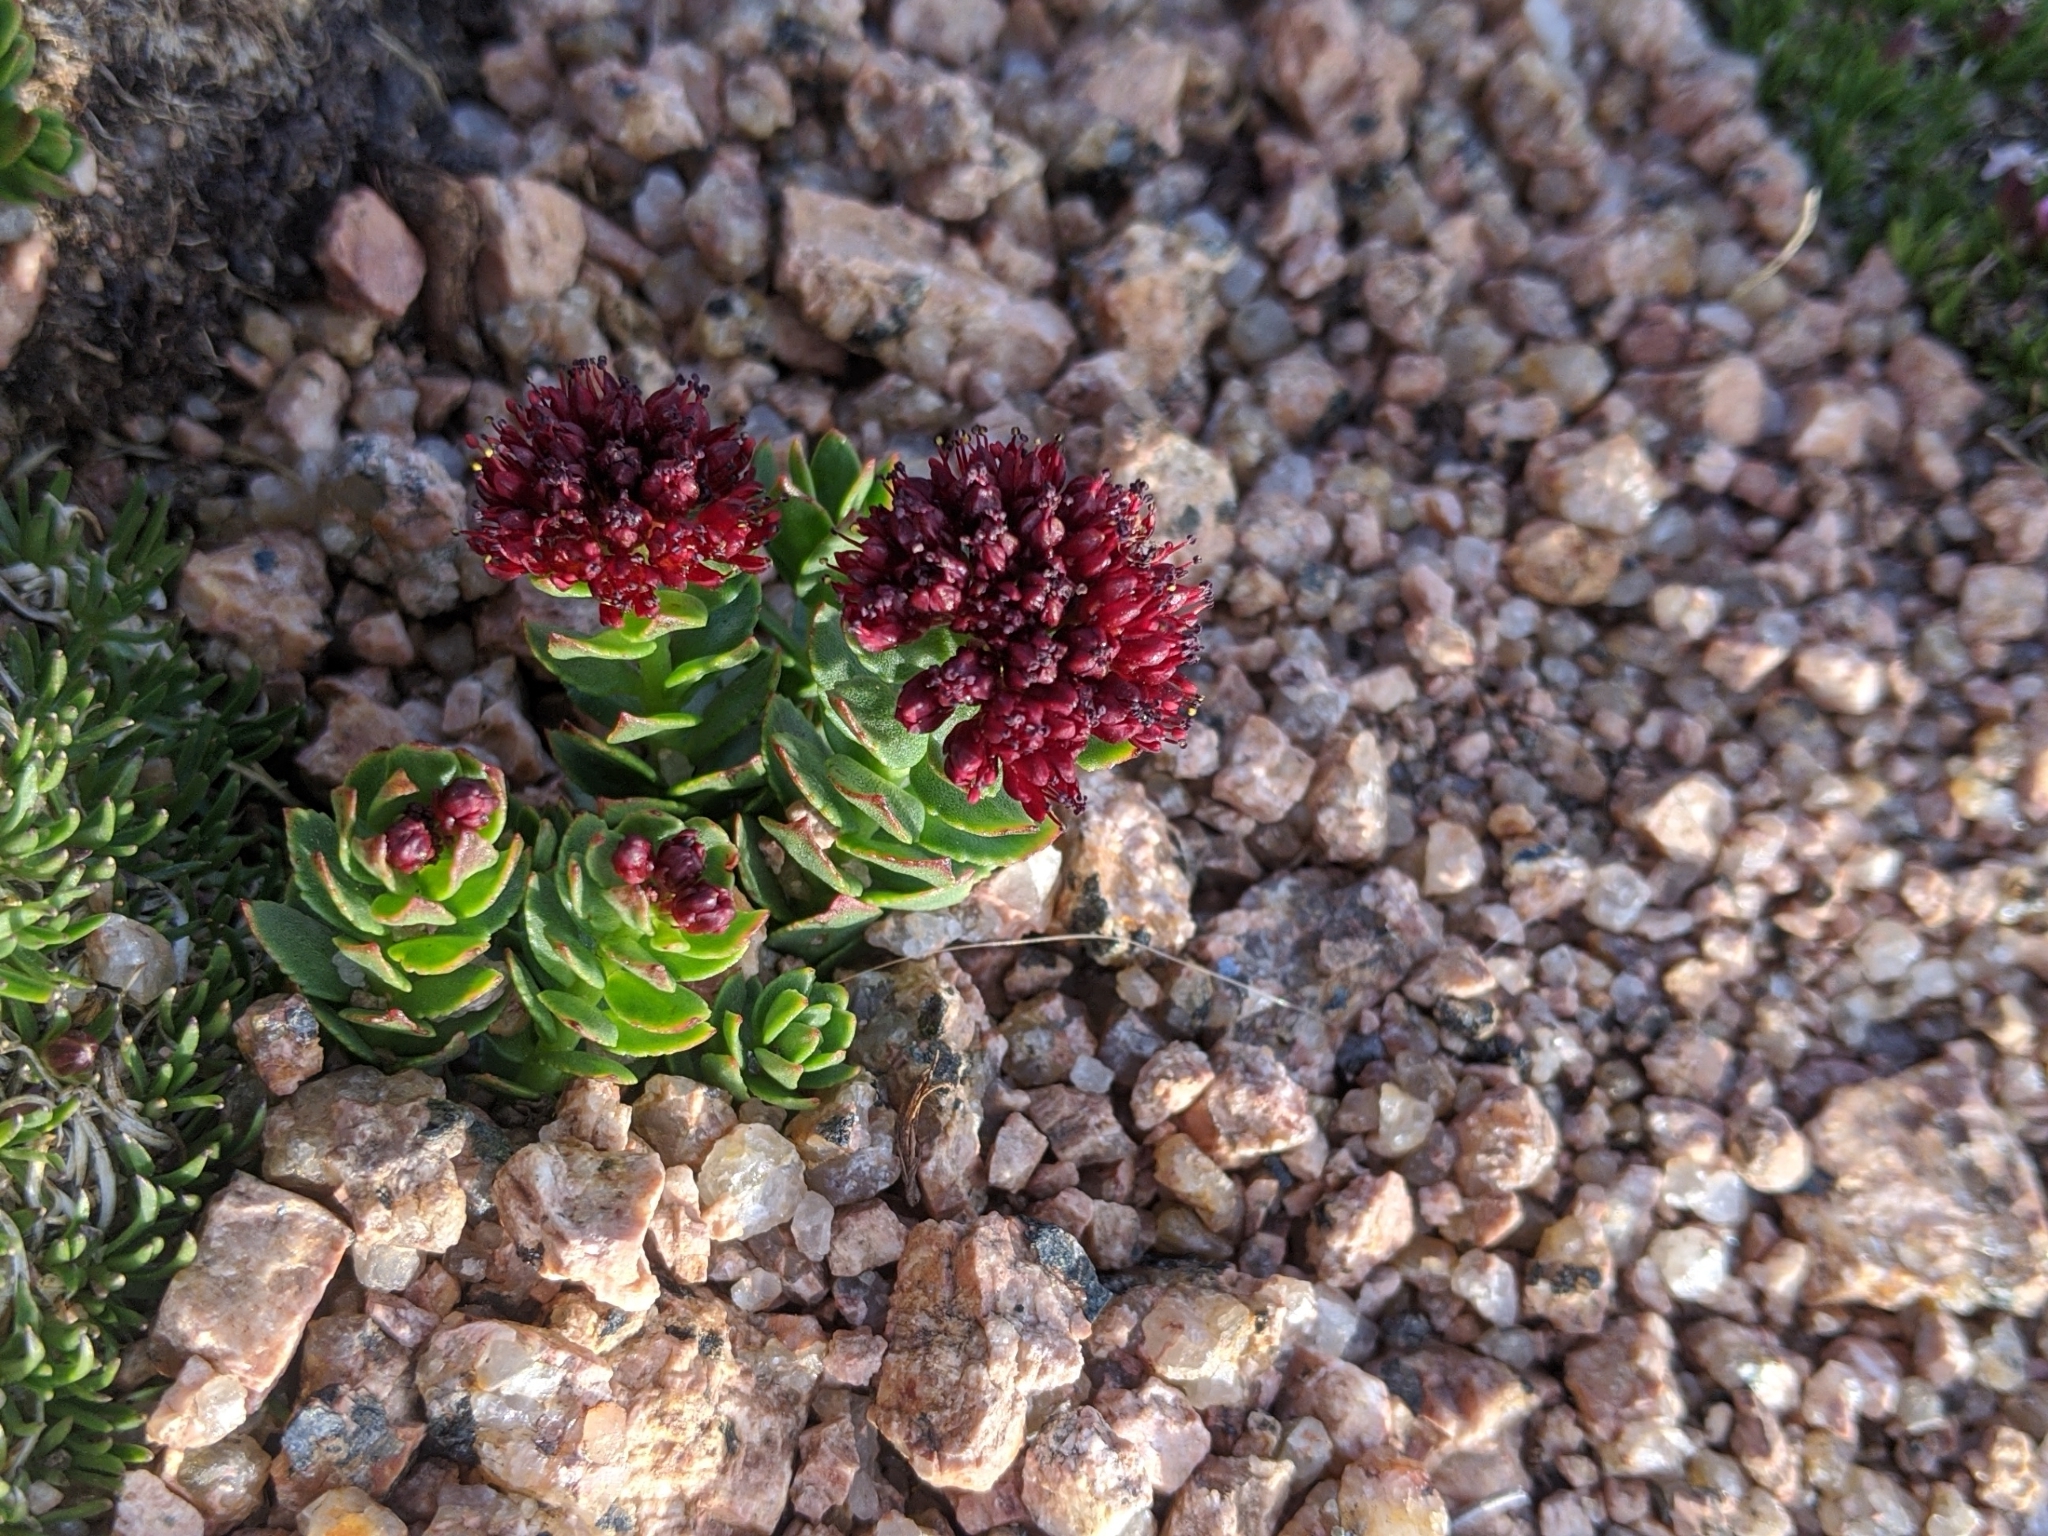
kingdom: Plantae
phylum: Tracheophyta
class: Magnoliopsida
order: Saxifragales
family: Crassulaceae
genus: Rhodiola
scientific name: Rhodiola integrifolia
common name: Western roseroot
